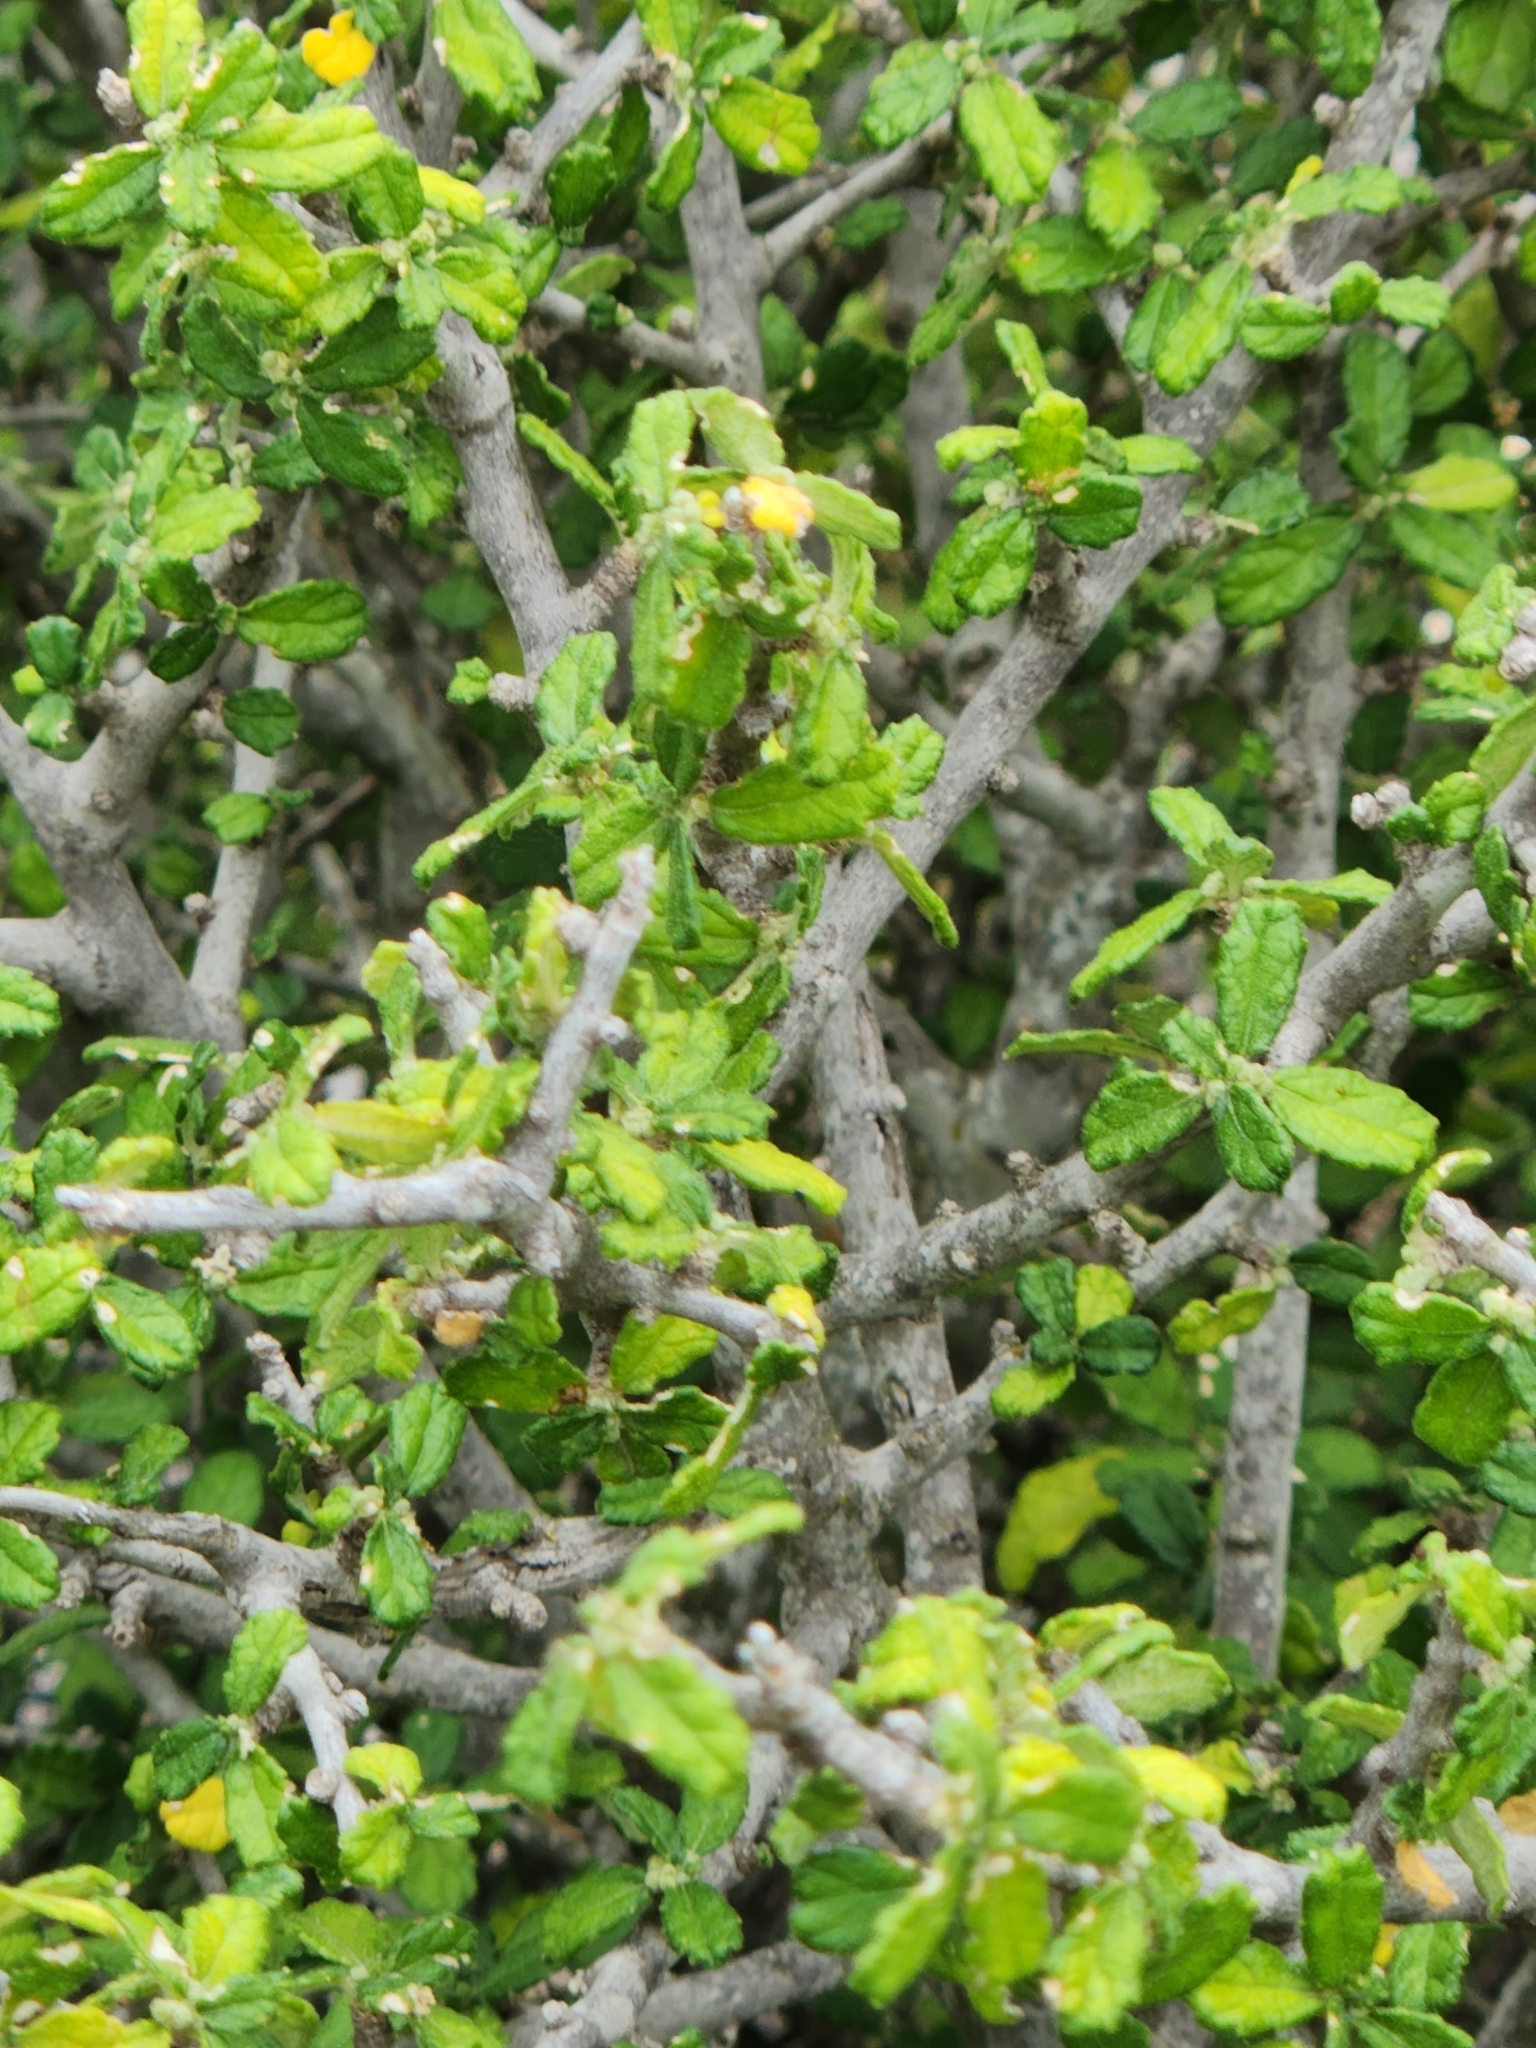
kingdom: Plantae
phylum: Tracheophyta
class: Magnoliopsida
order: Malpighiales
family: Euphorbiaceae
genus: Bernardia
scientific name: Bernardia myricifolia
